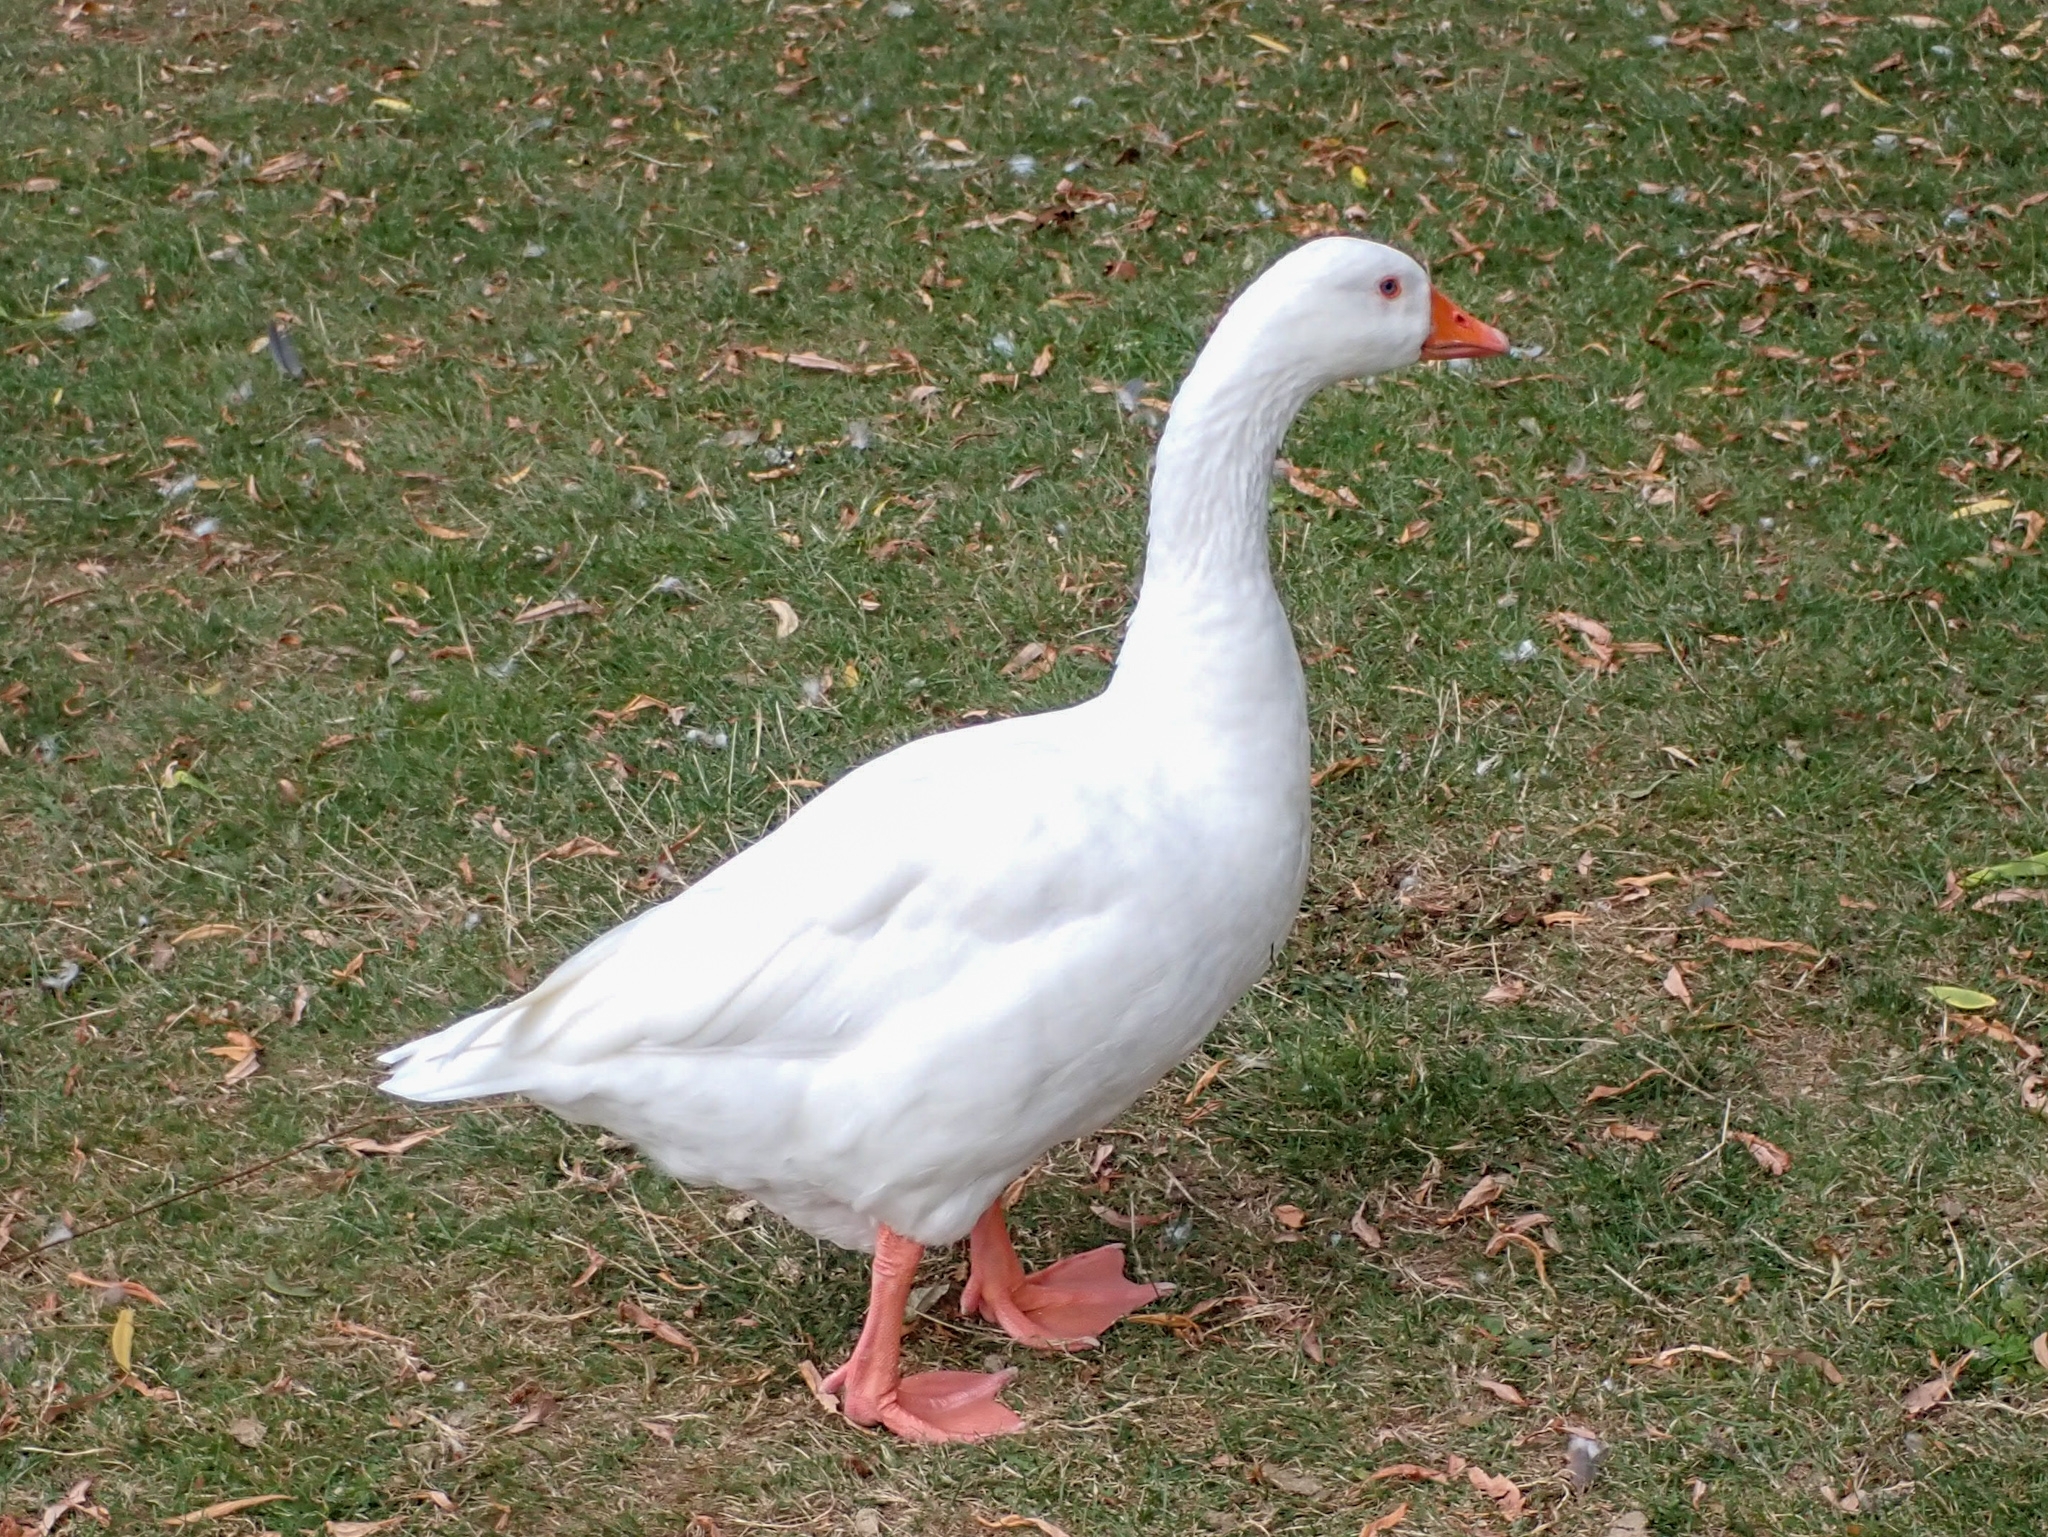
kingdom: Animalia
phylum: Chordata
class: Aves
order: Anseriformes
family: Anatidae
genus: Anser
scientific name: Anser anser
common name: Greylag goose
